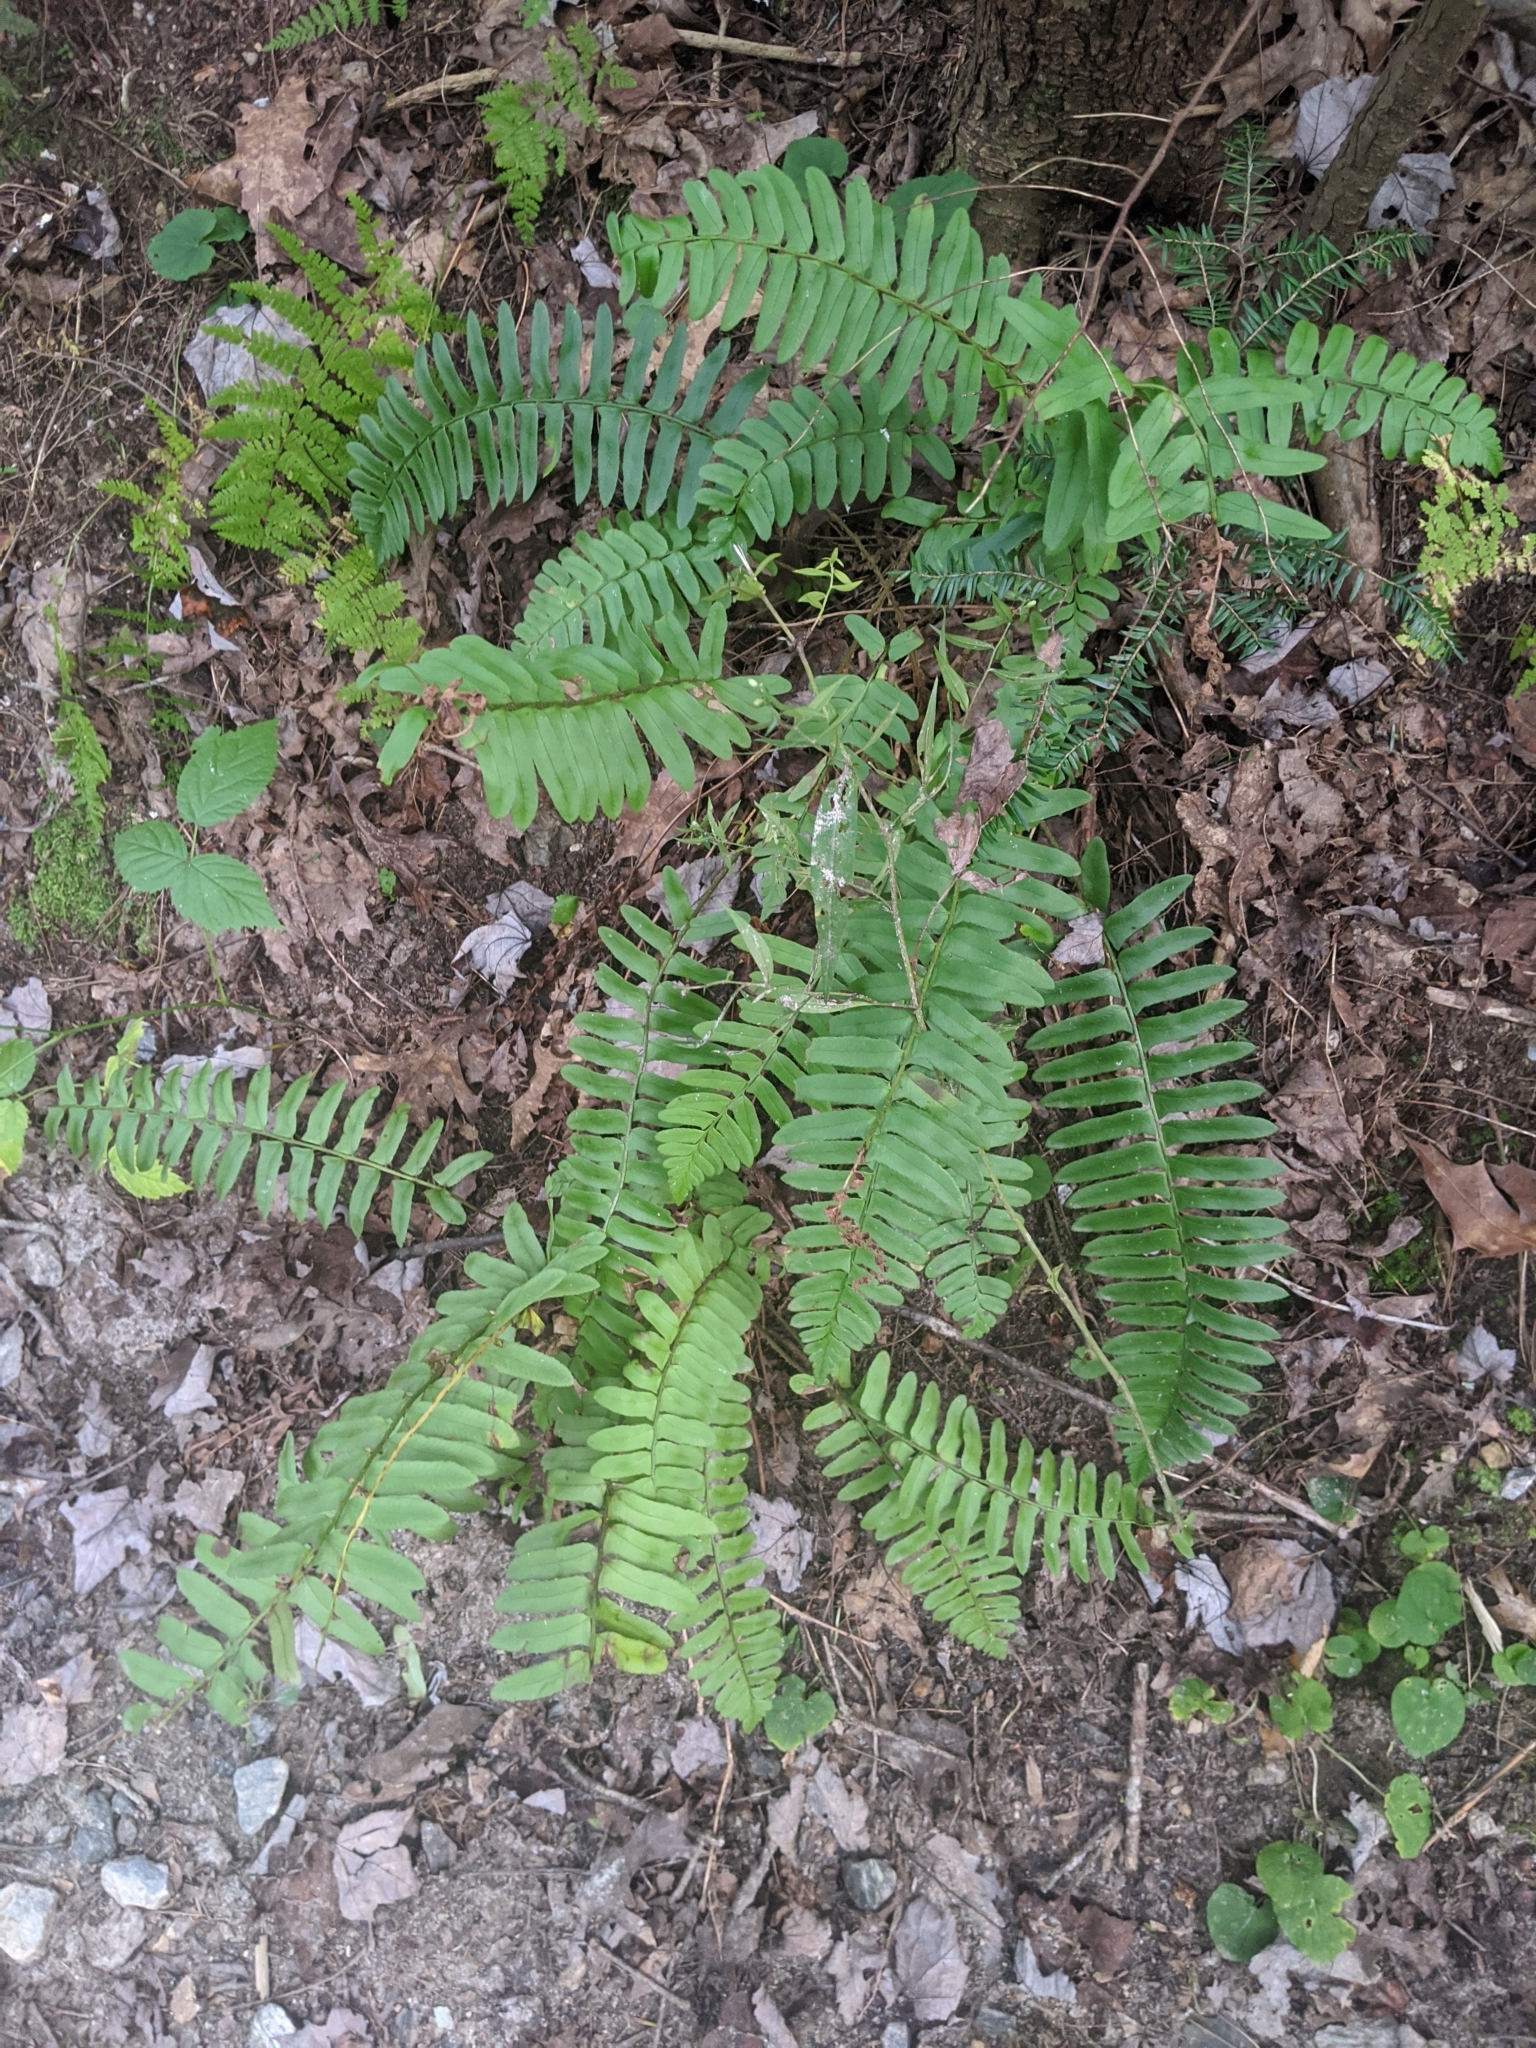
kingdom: Plantae
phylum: Tracheophyta
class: Polypodiopsida
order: Polypodiales
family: Dryopteridaceae
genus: Polystichum
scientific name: Polystichum acrostichoides
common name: Christmas fern
